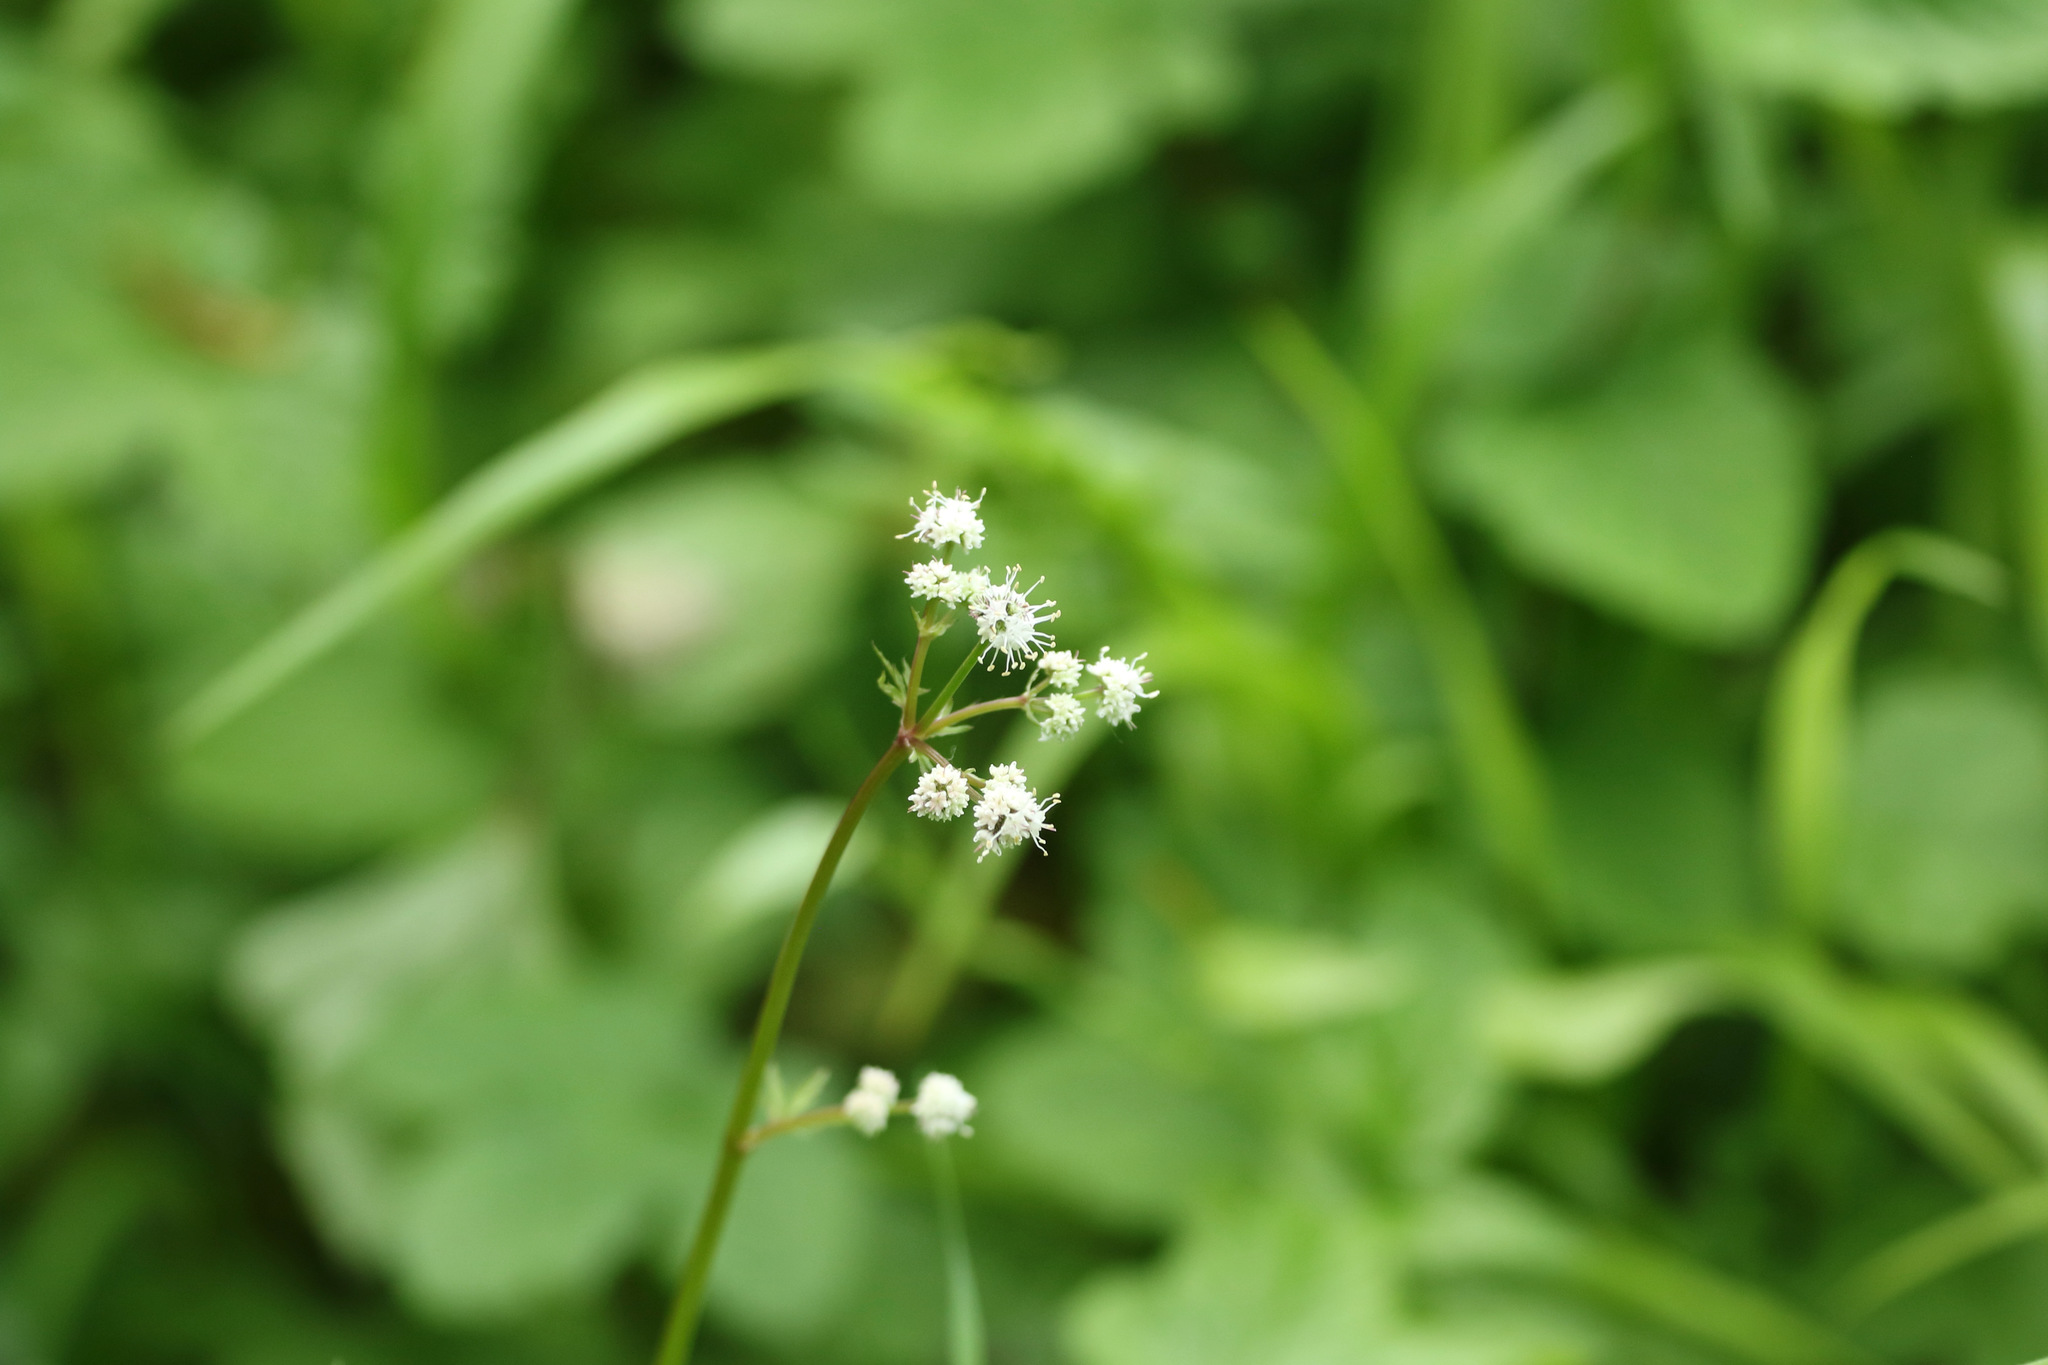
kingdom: Plantae
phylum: Tracheophyta
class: Magnoliopsida
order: Apiales
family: Apiaceae
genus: Sanicula
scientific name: Sanicula europaea
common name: Sanicle
